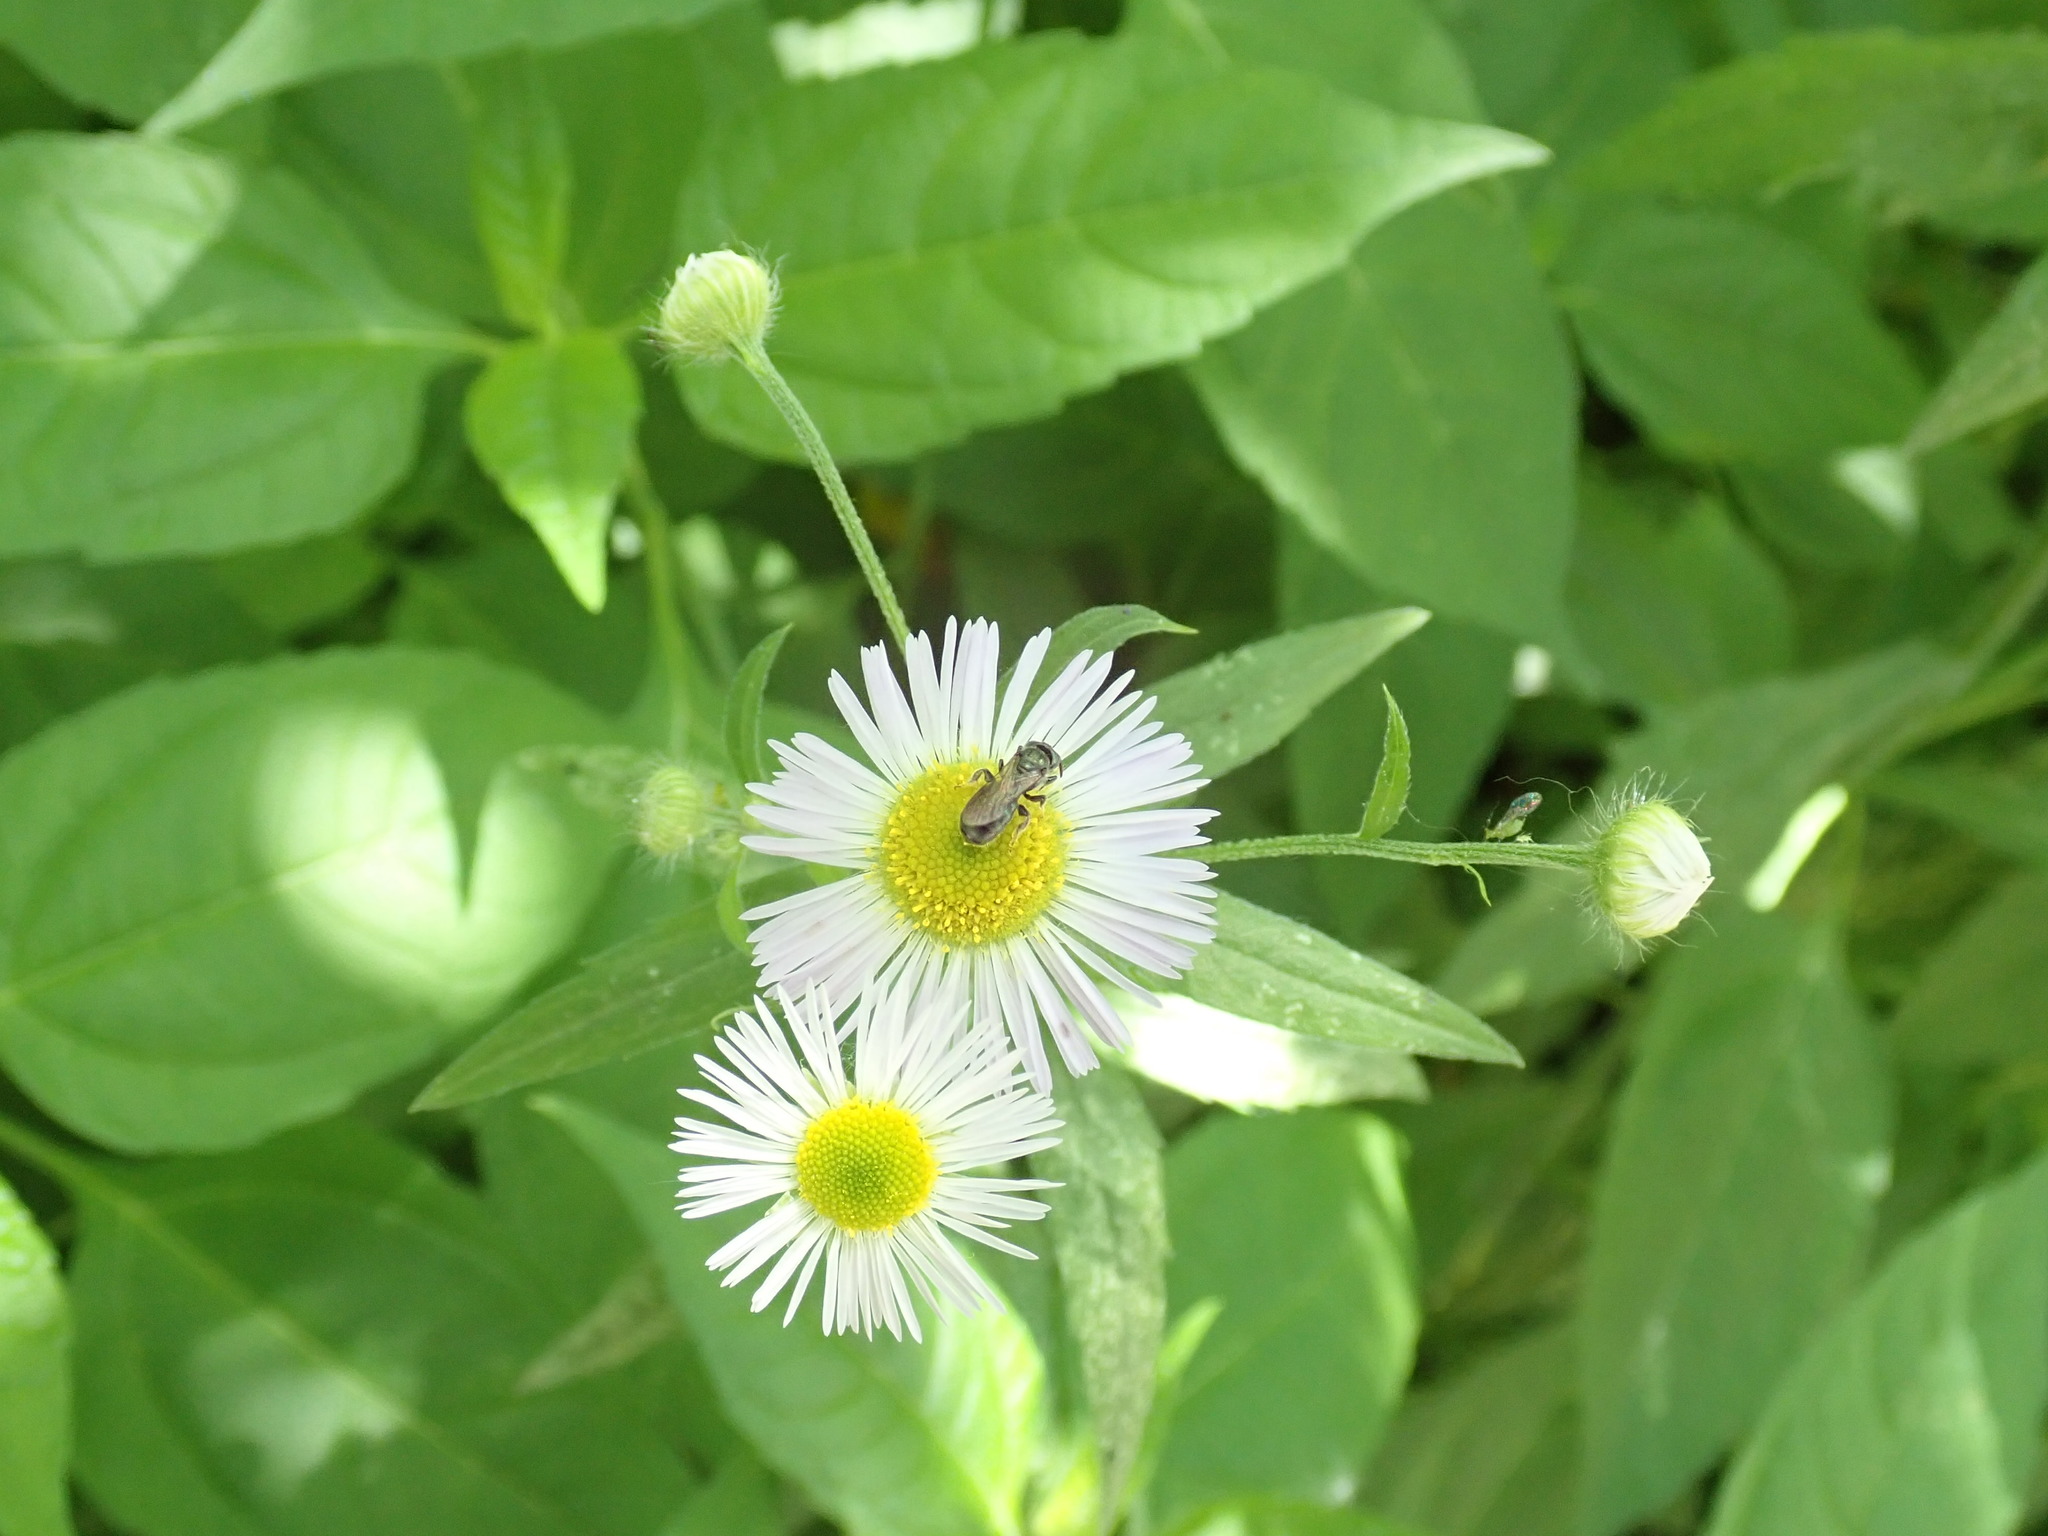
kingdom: Animalia
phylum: Arthropoda
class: Insecta
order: Hymenoptera
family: Apidae
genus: Zadontomerus
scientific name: Zadontomerus
